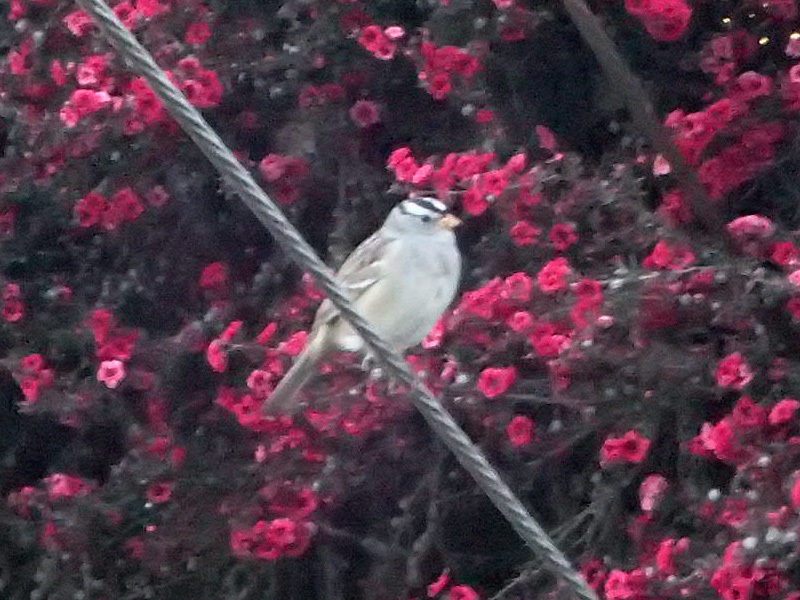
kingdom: Animalia
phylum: Chordata
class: Aves
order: Passeriformes
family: Passerellidae
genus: Zonotrichia
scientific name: Zonotrichia leucophrys
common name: White-crowned sparrow
